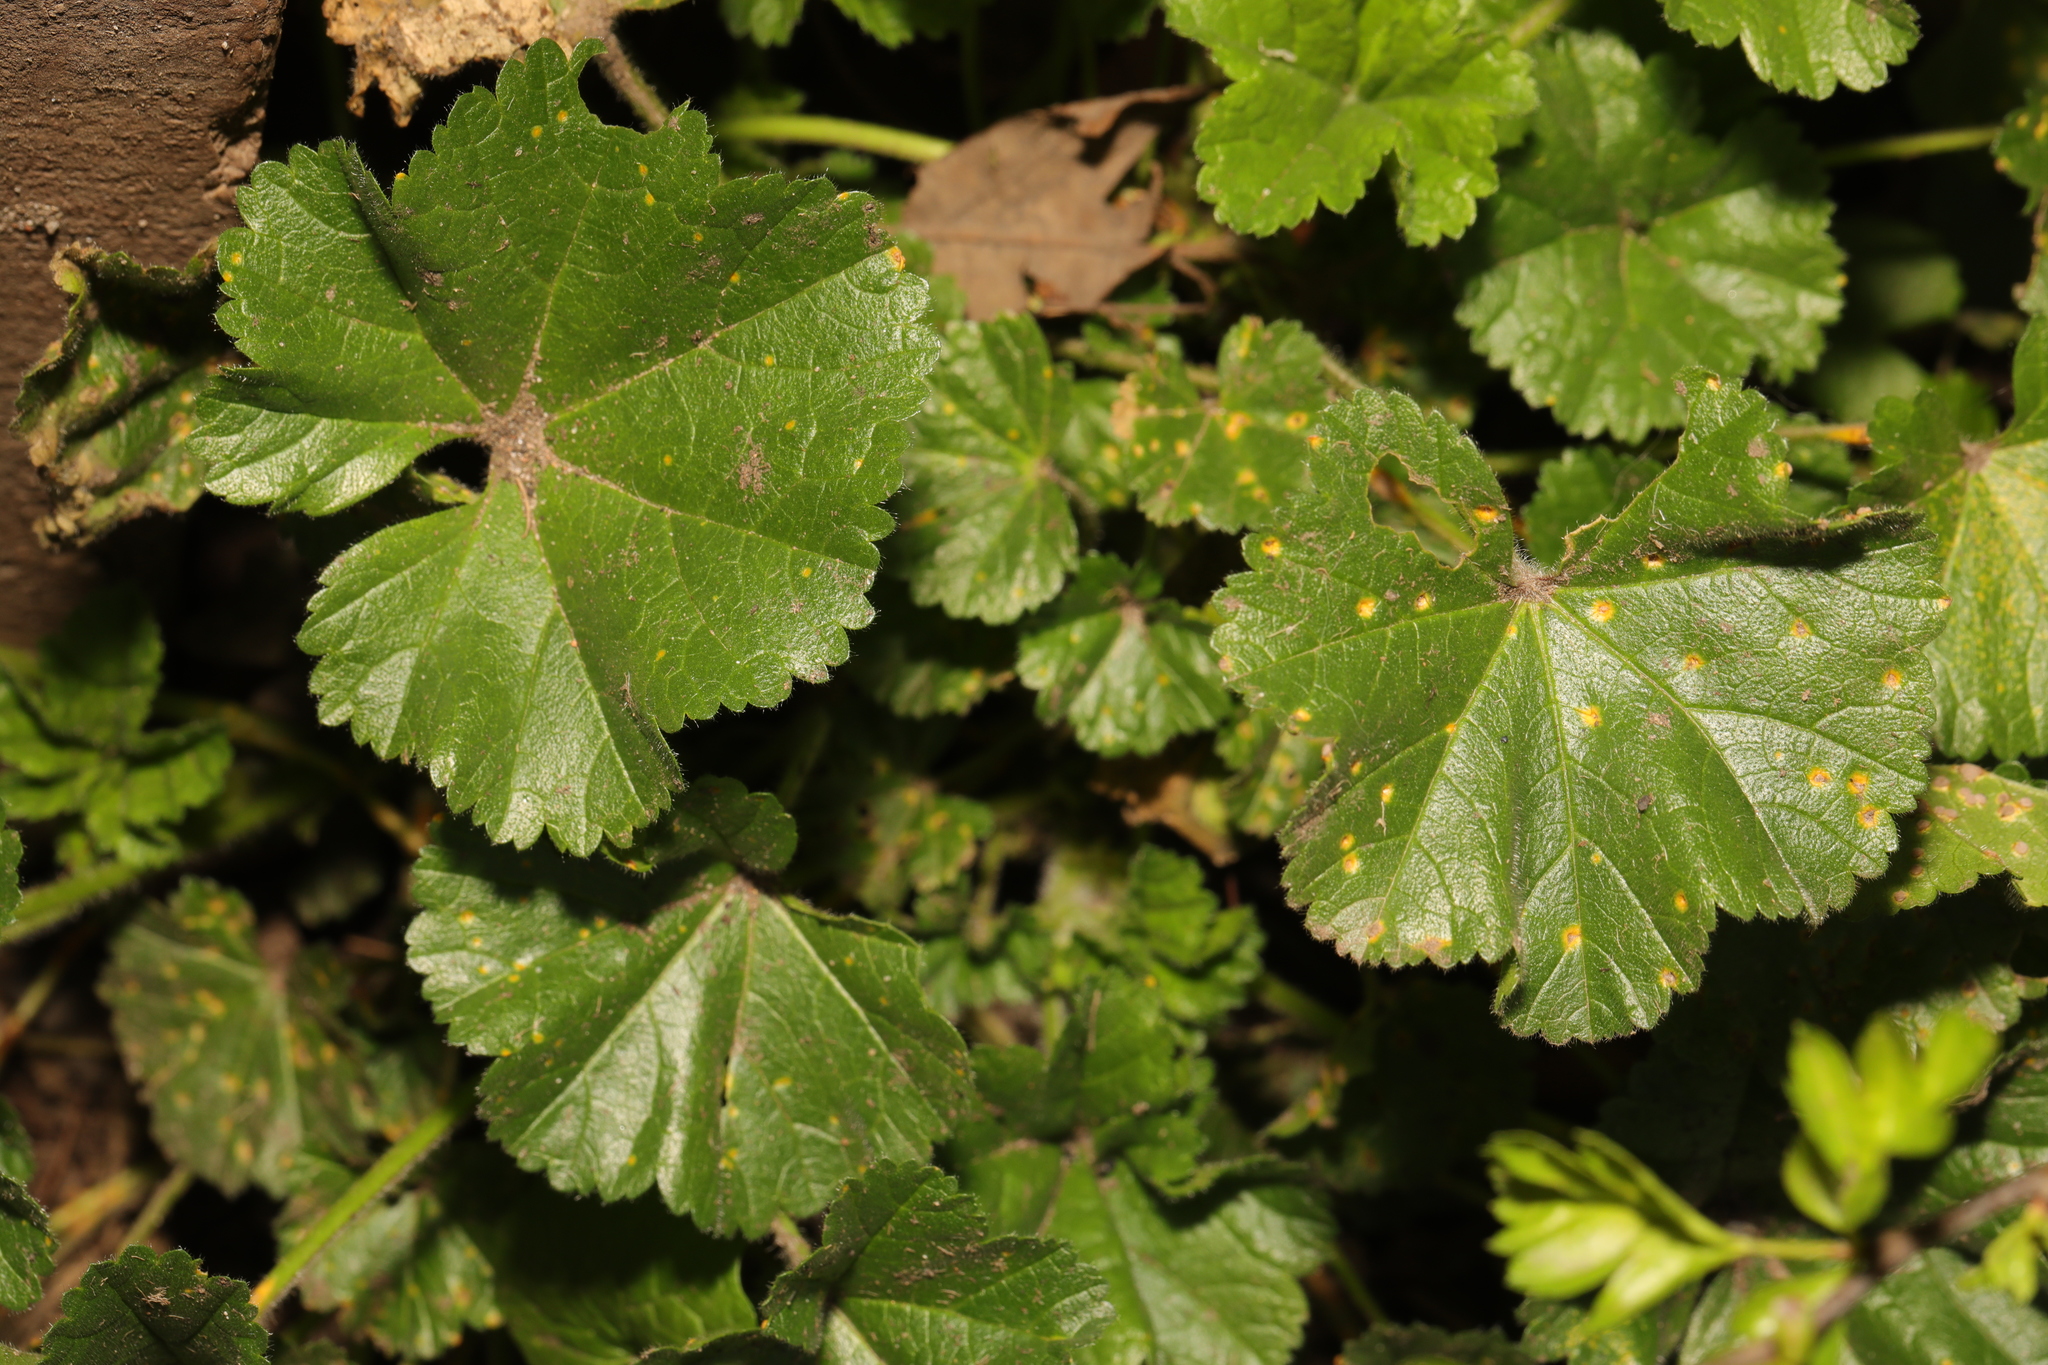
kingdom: Plantae
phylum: Tracheophyta
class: Magnoliopsida
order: Malvales
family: Malvaceae
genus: Malva
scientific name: Malva sylvestris
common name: Common mallow
